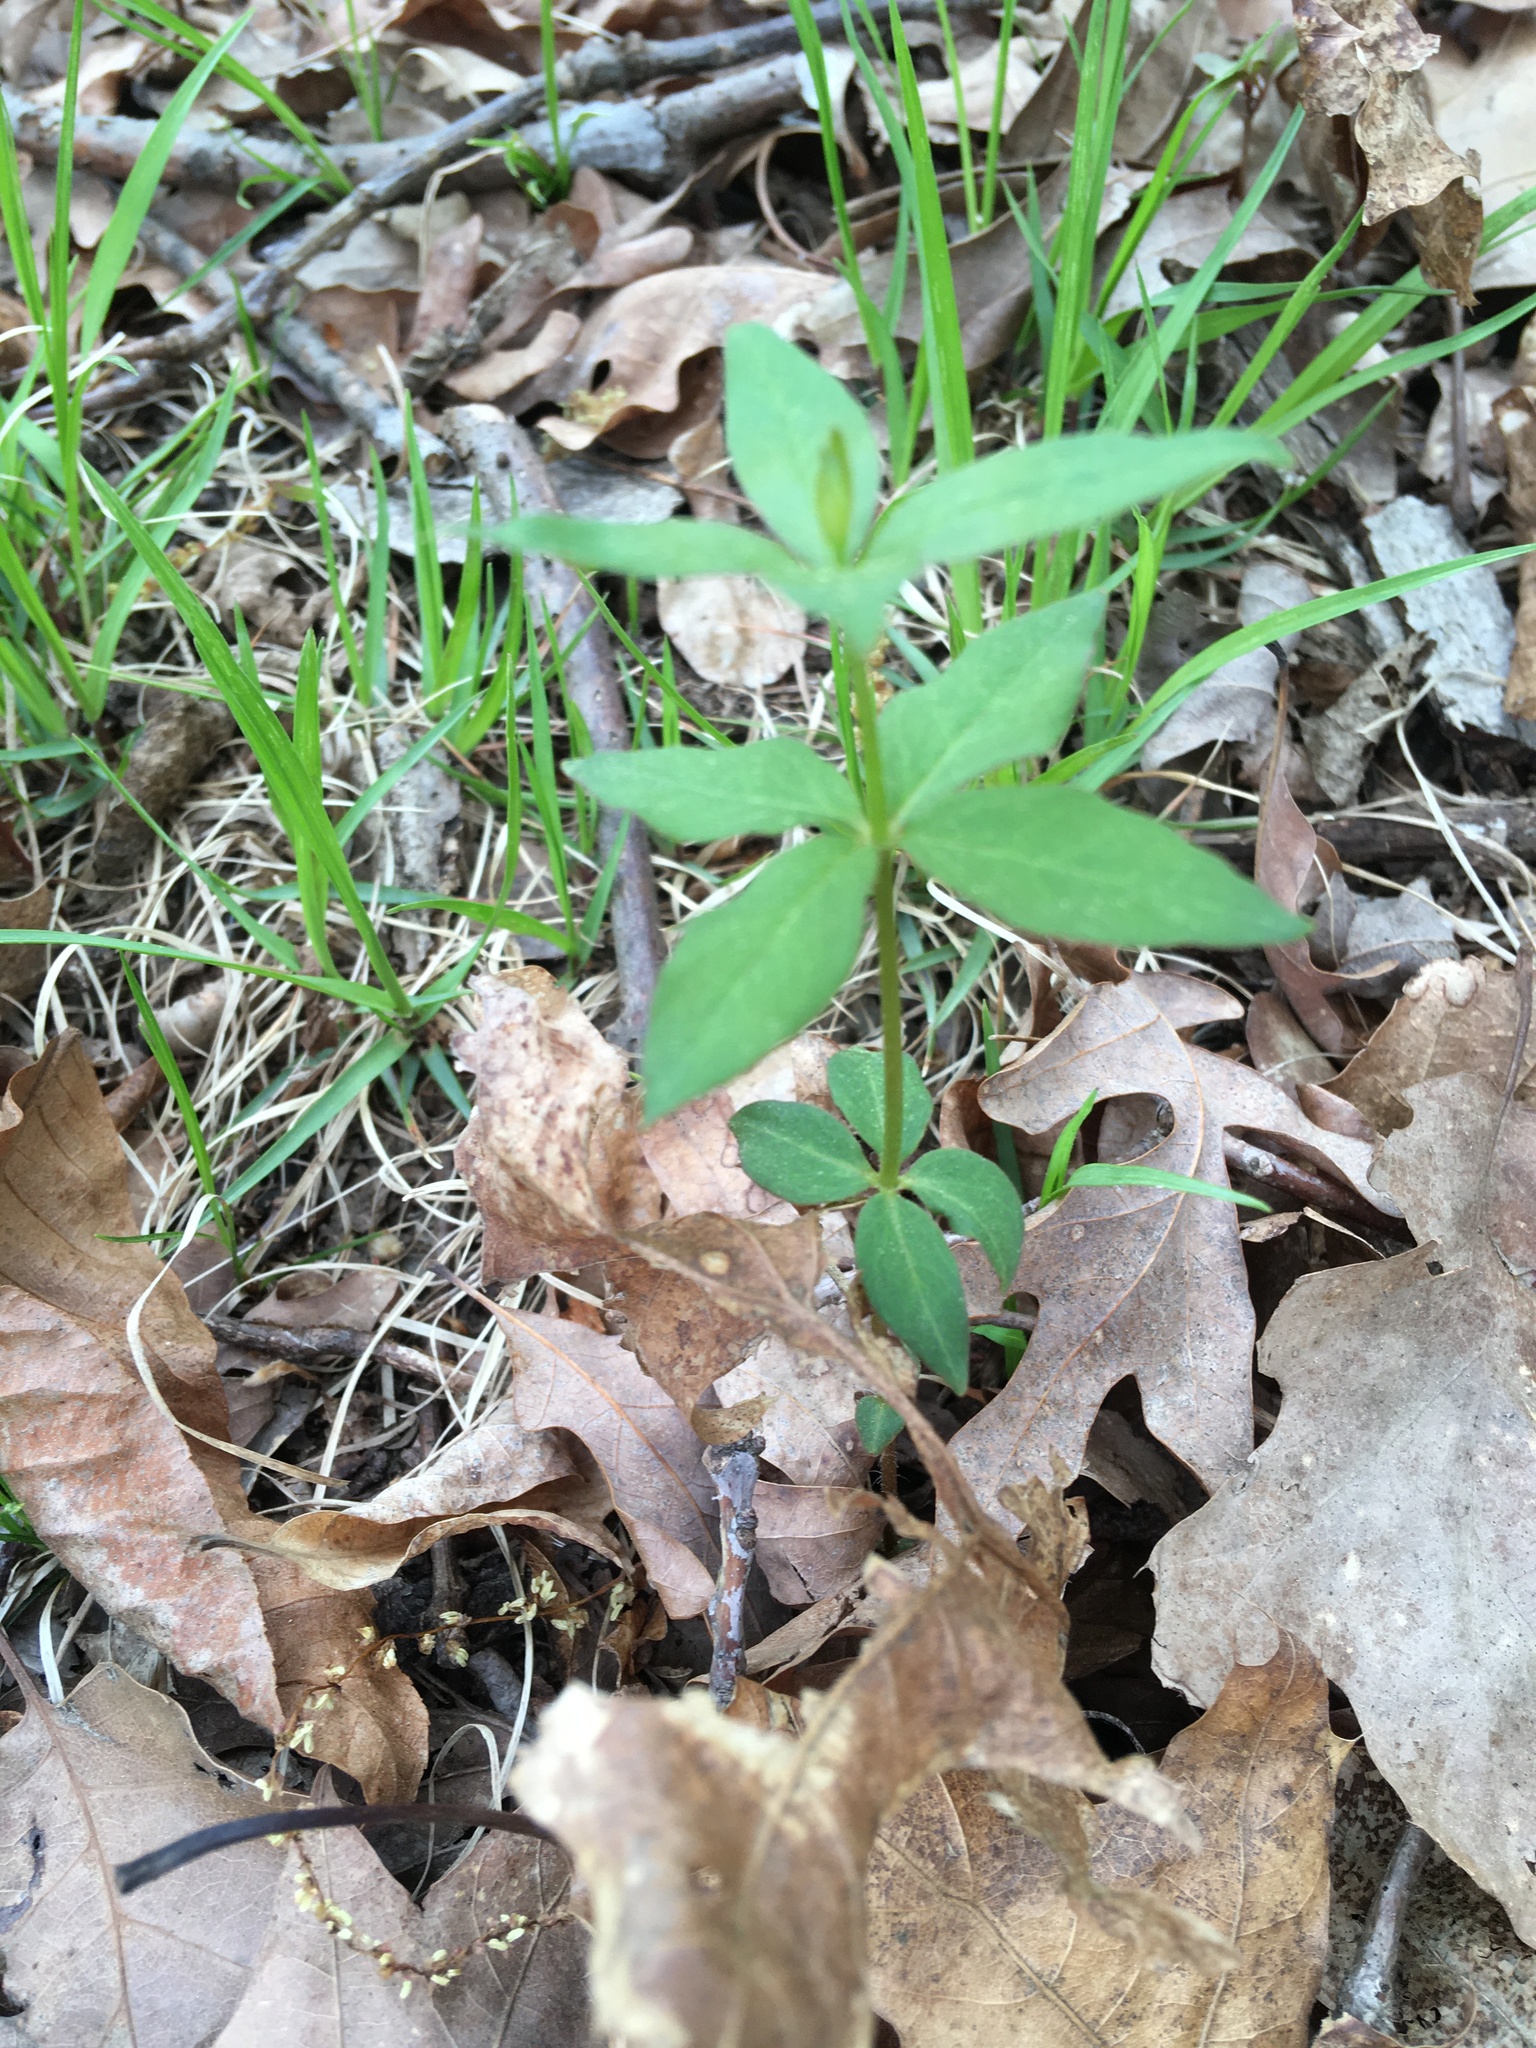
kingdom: Plantae
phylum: Tracheophyta
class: Magnoliopsida
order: Ericales
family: Primulaceae
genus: Lysimachia
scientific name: Lysimachia quadrifolia
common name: Whorled loosestrife
